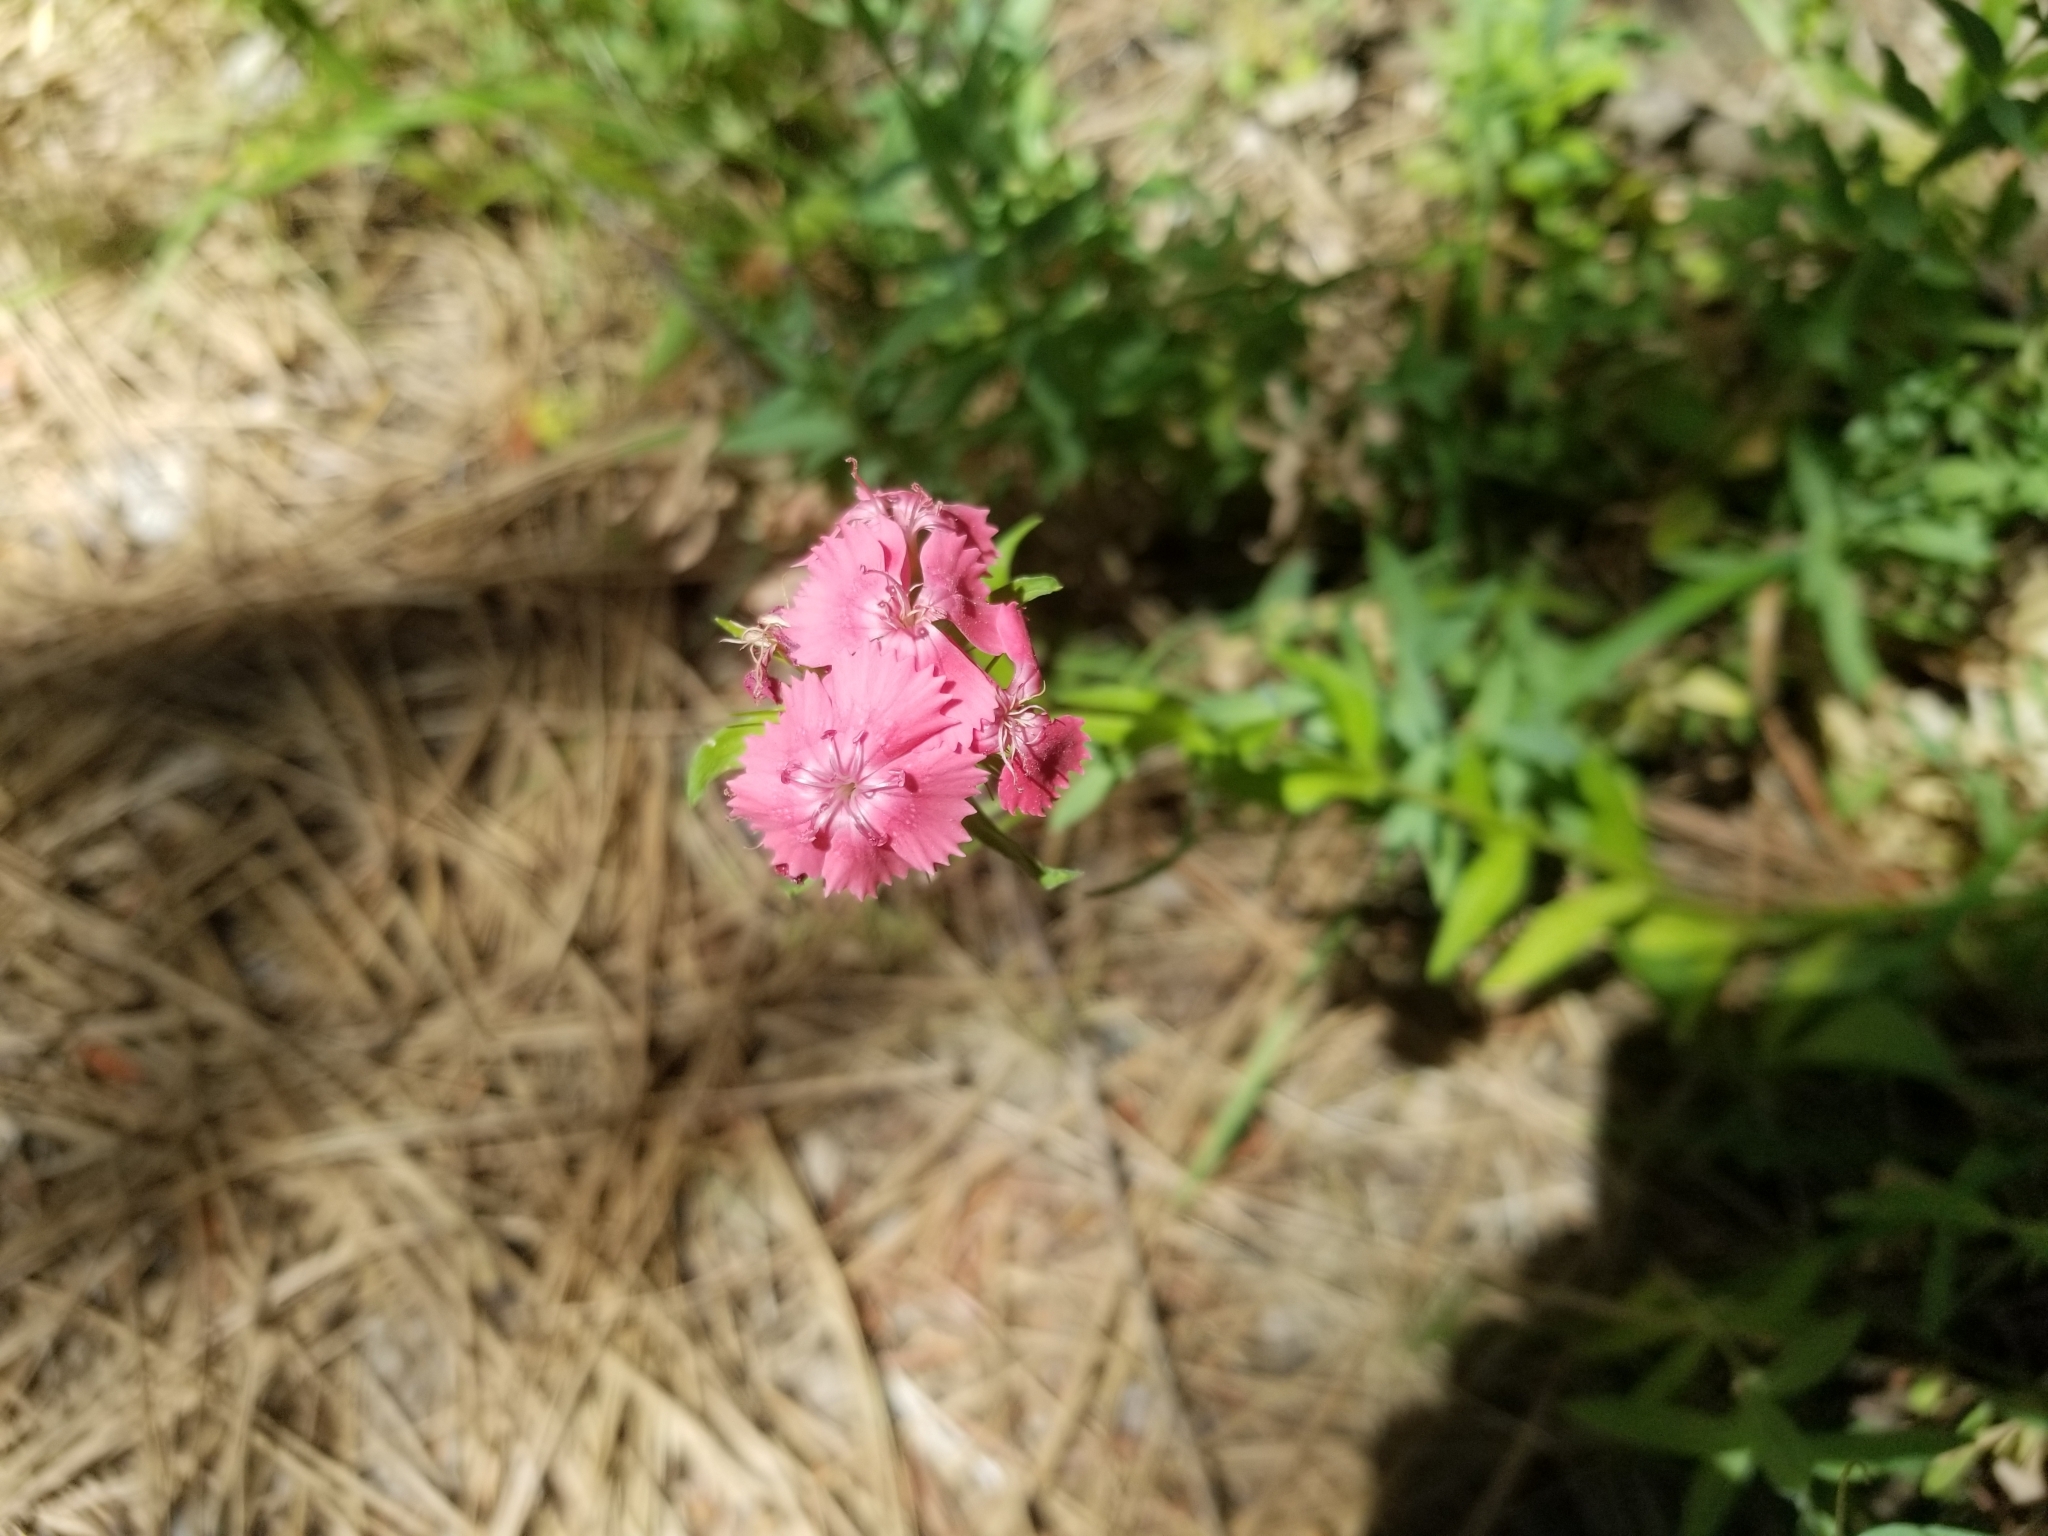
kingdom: Plantae
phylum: Tracheophyta
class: Magnoliopsida
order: Caryophyllales
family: Caryophyllaceae
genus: Dianthus
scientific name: Dianthus barbatus
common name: Sweet-william
